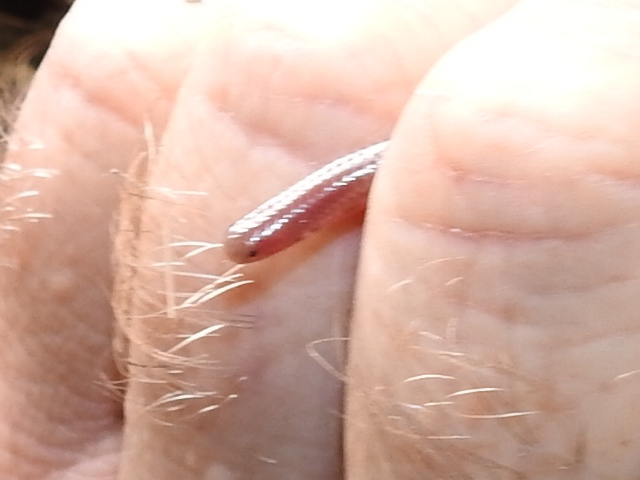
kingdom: Animalia
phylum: Chordata
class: Squamata
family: Leptotyphlopidae
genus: Rena
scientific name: Rena dulcis
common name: Texas blind snake
